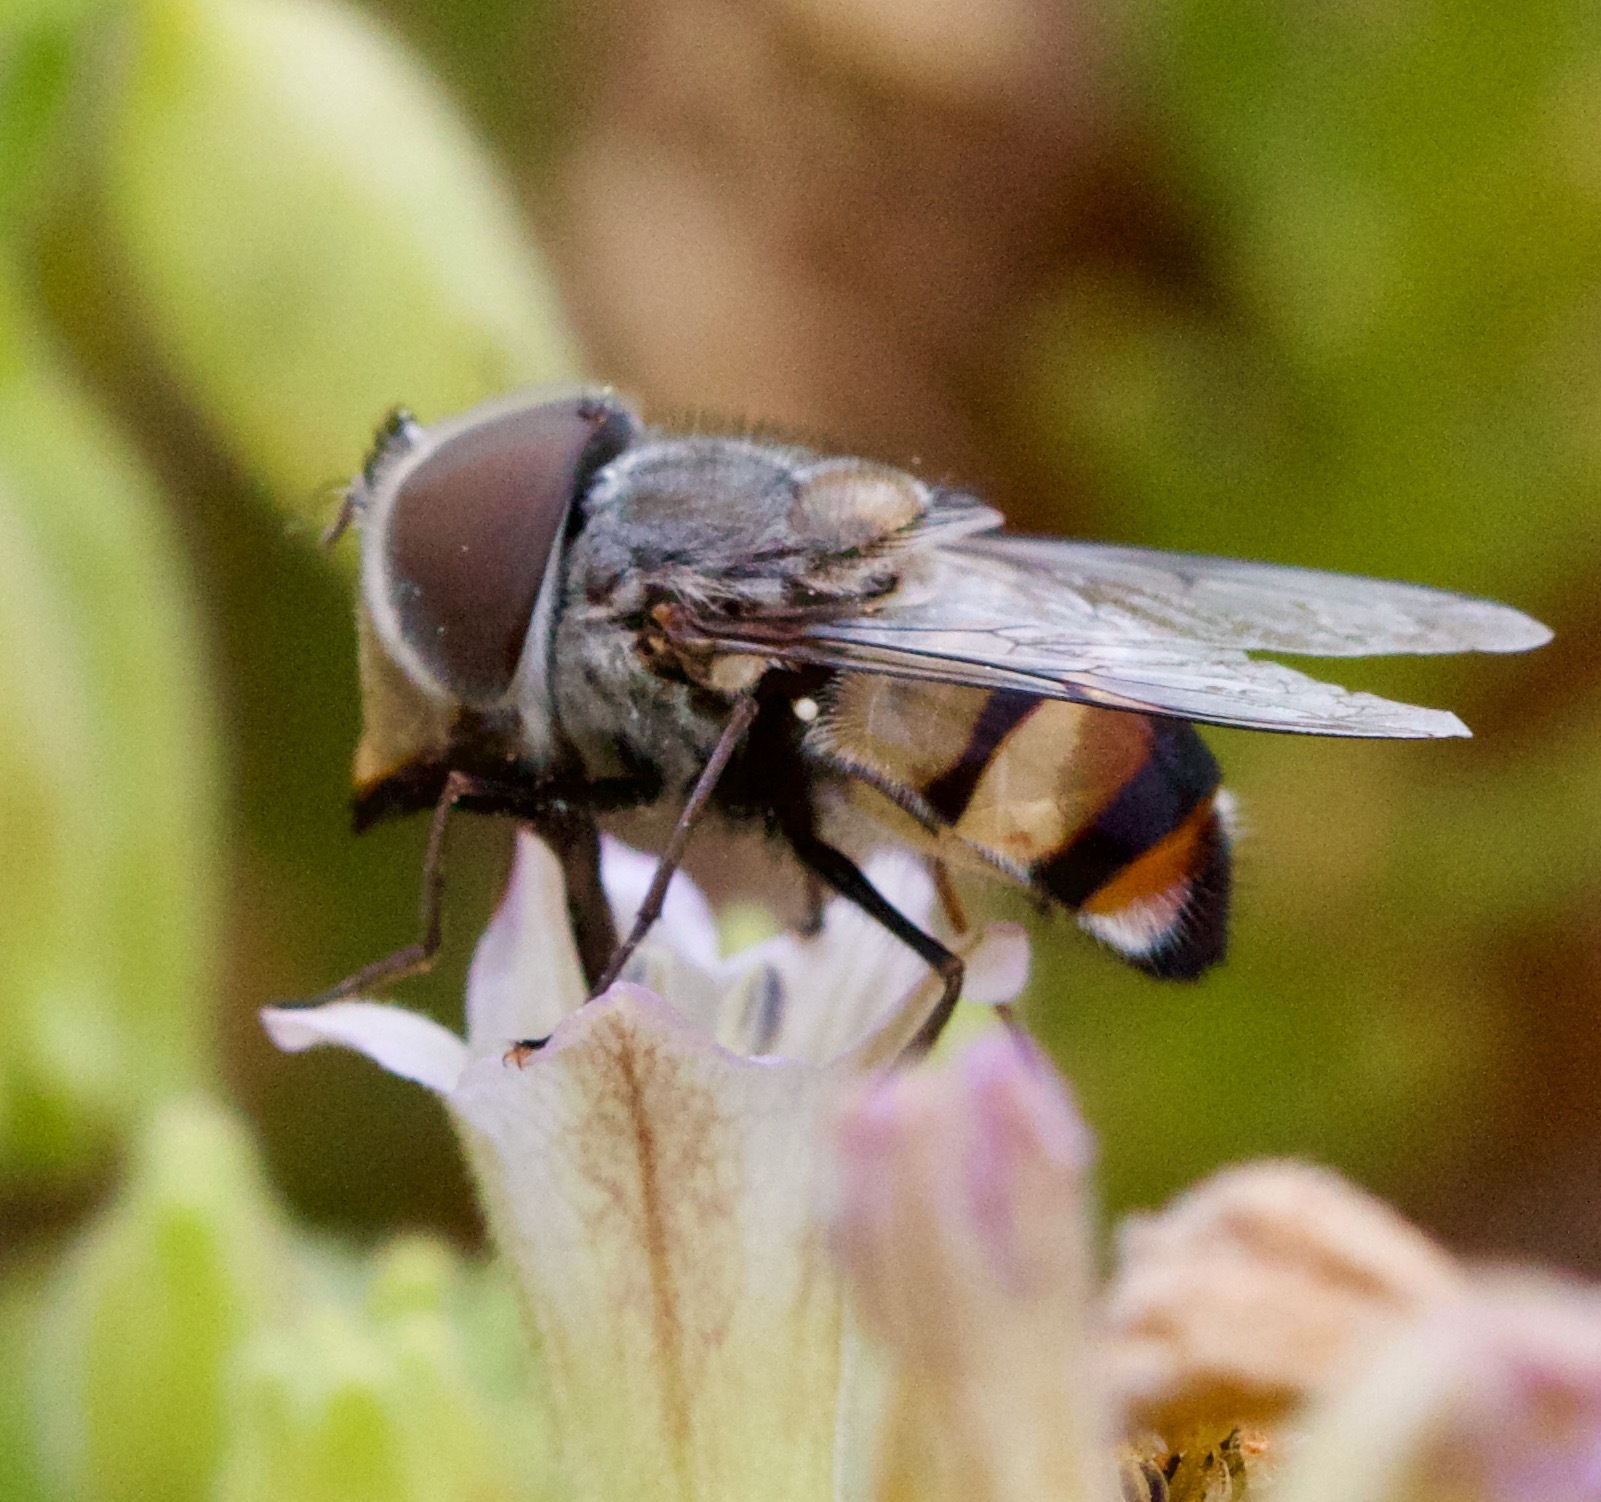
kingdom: Animalia
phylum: Arthropoda
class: Insecta
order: Diptera
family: Syrphidae
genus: Copestylum
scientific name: Copestylum longirostre
